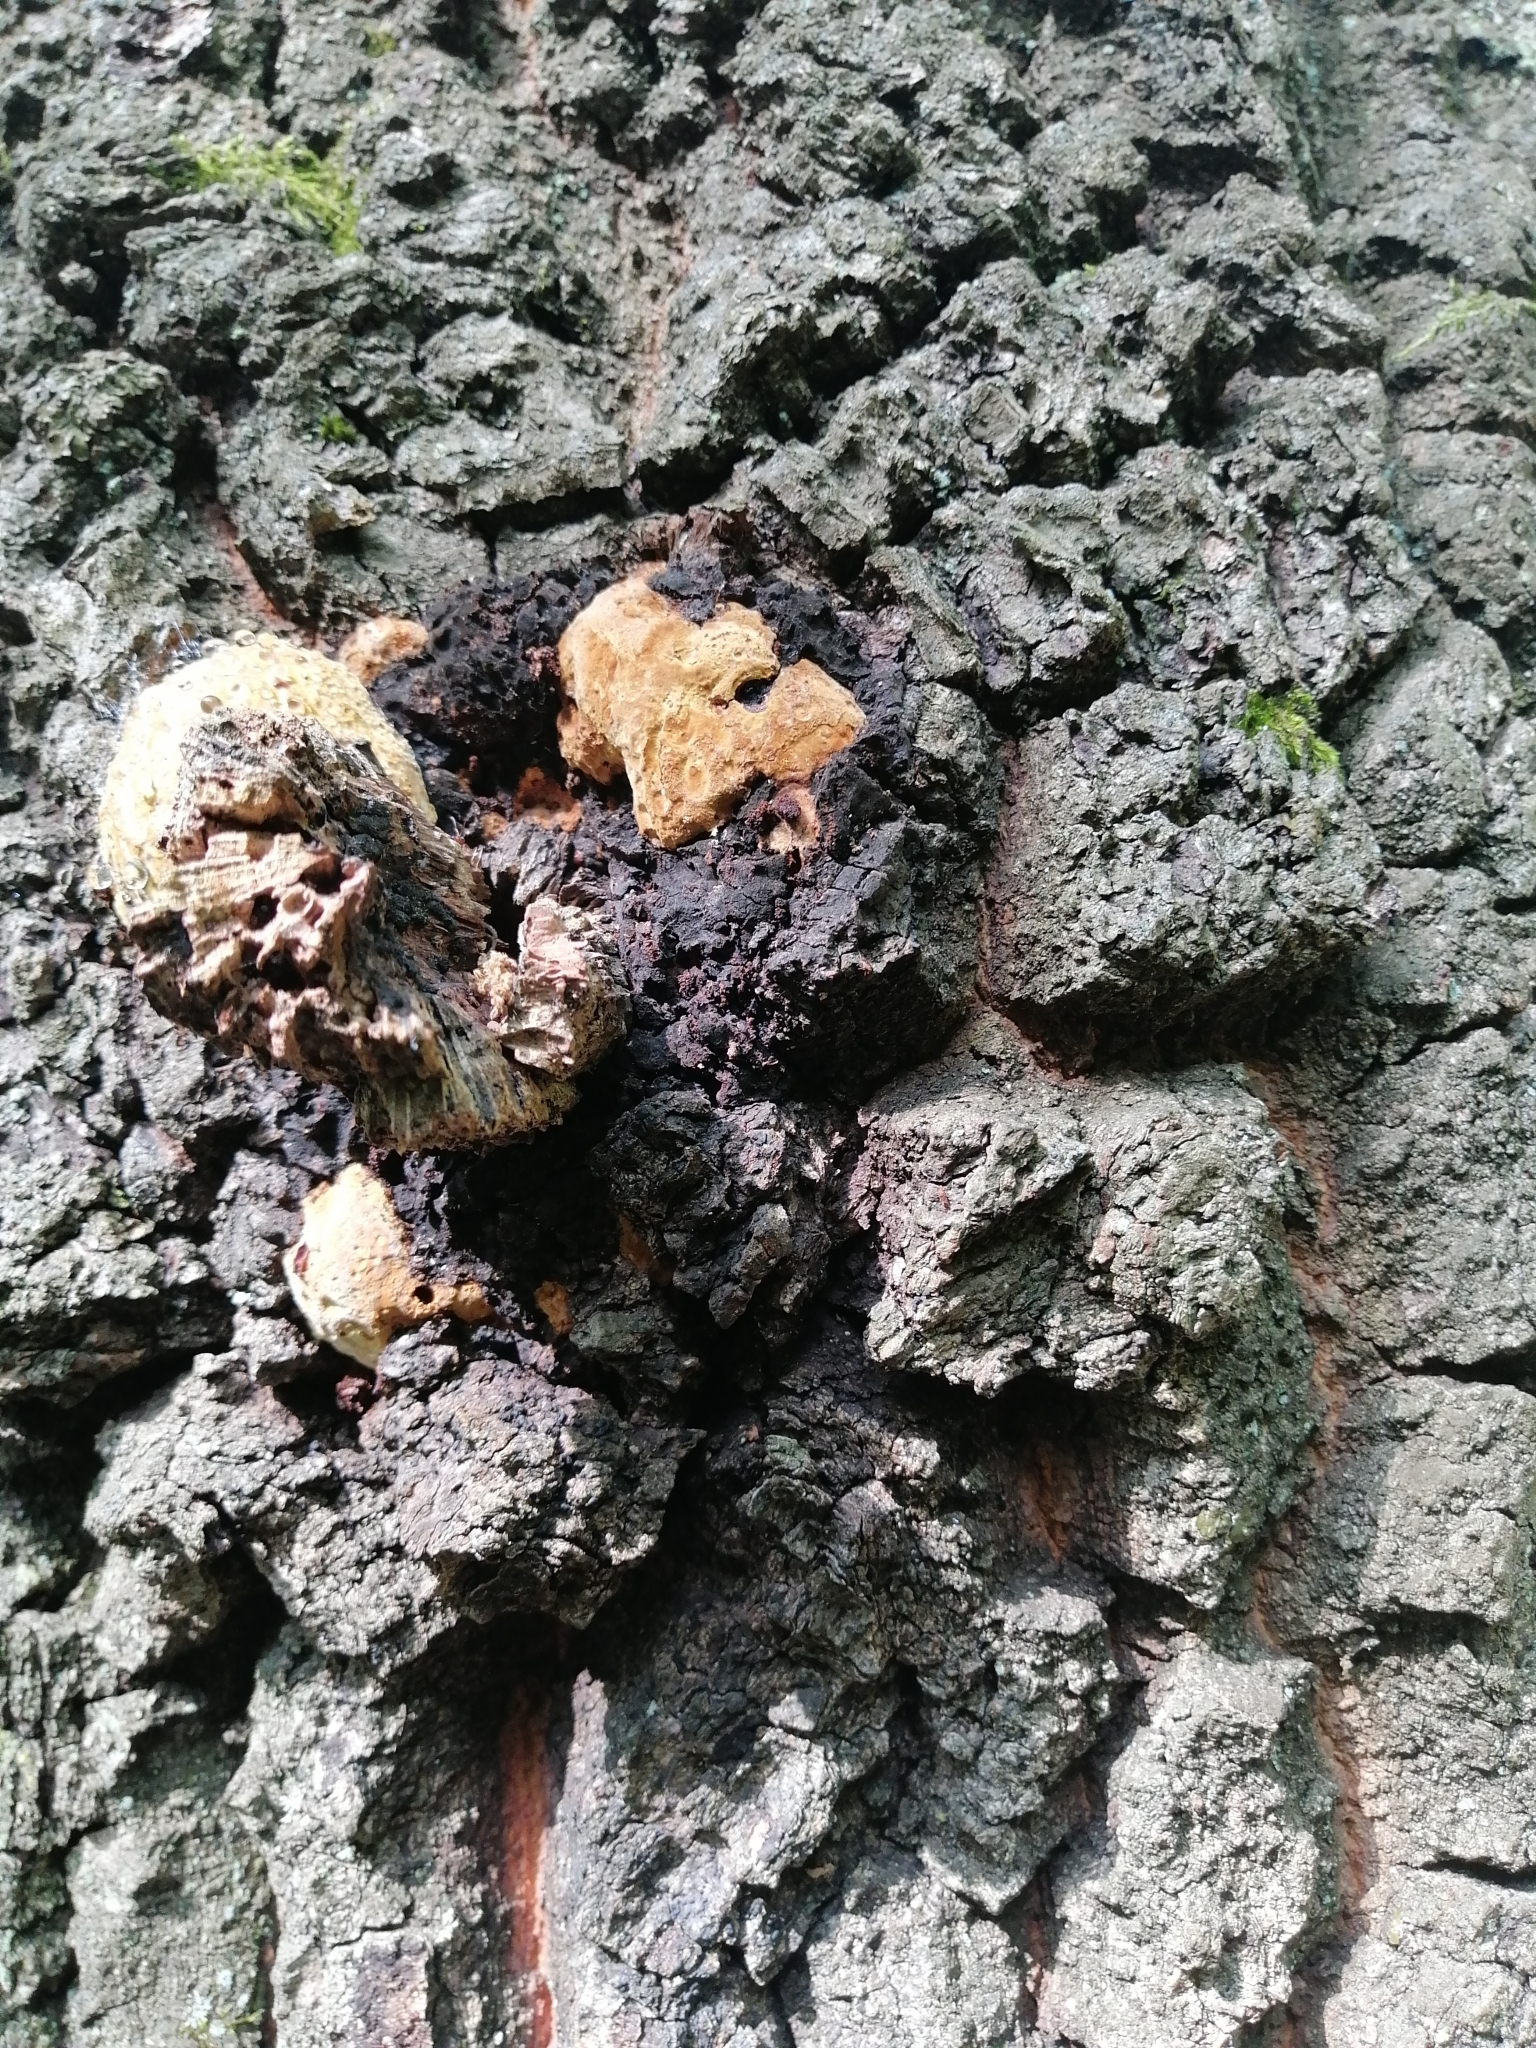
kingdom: Fungi
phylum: Basidiomycota
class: Agaricomycetes
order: Hymenochaetales
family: Hymenochaetaceae
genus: Inonotus
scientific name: Inonotus nidus-pici
